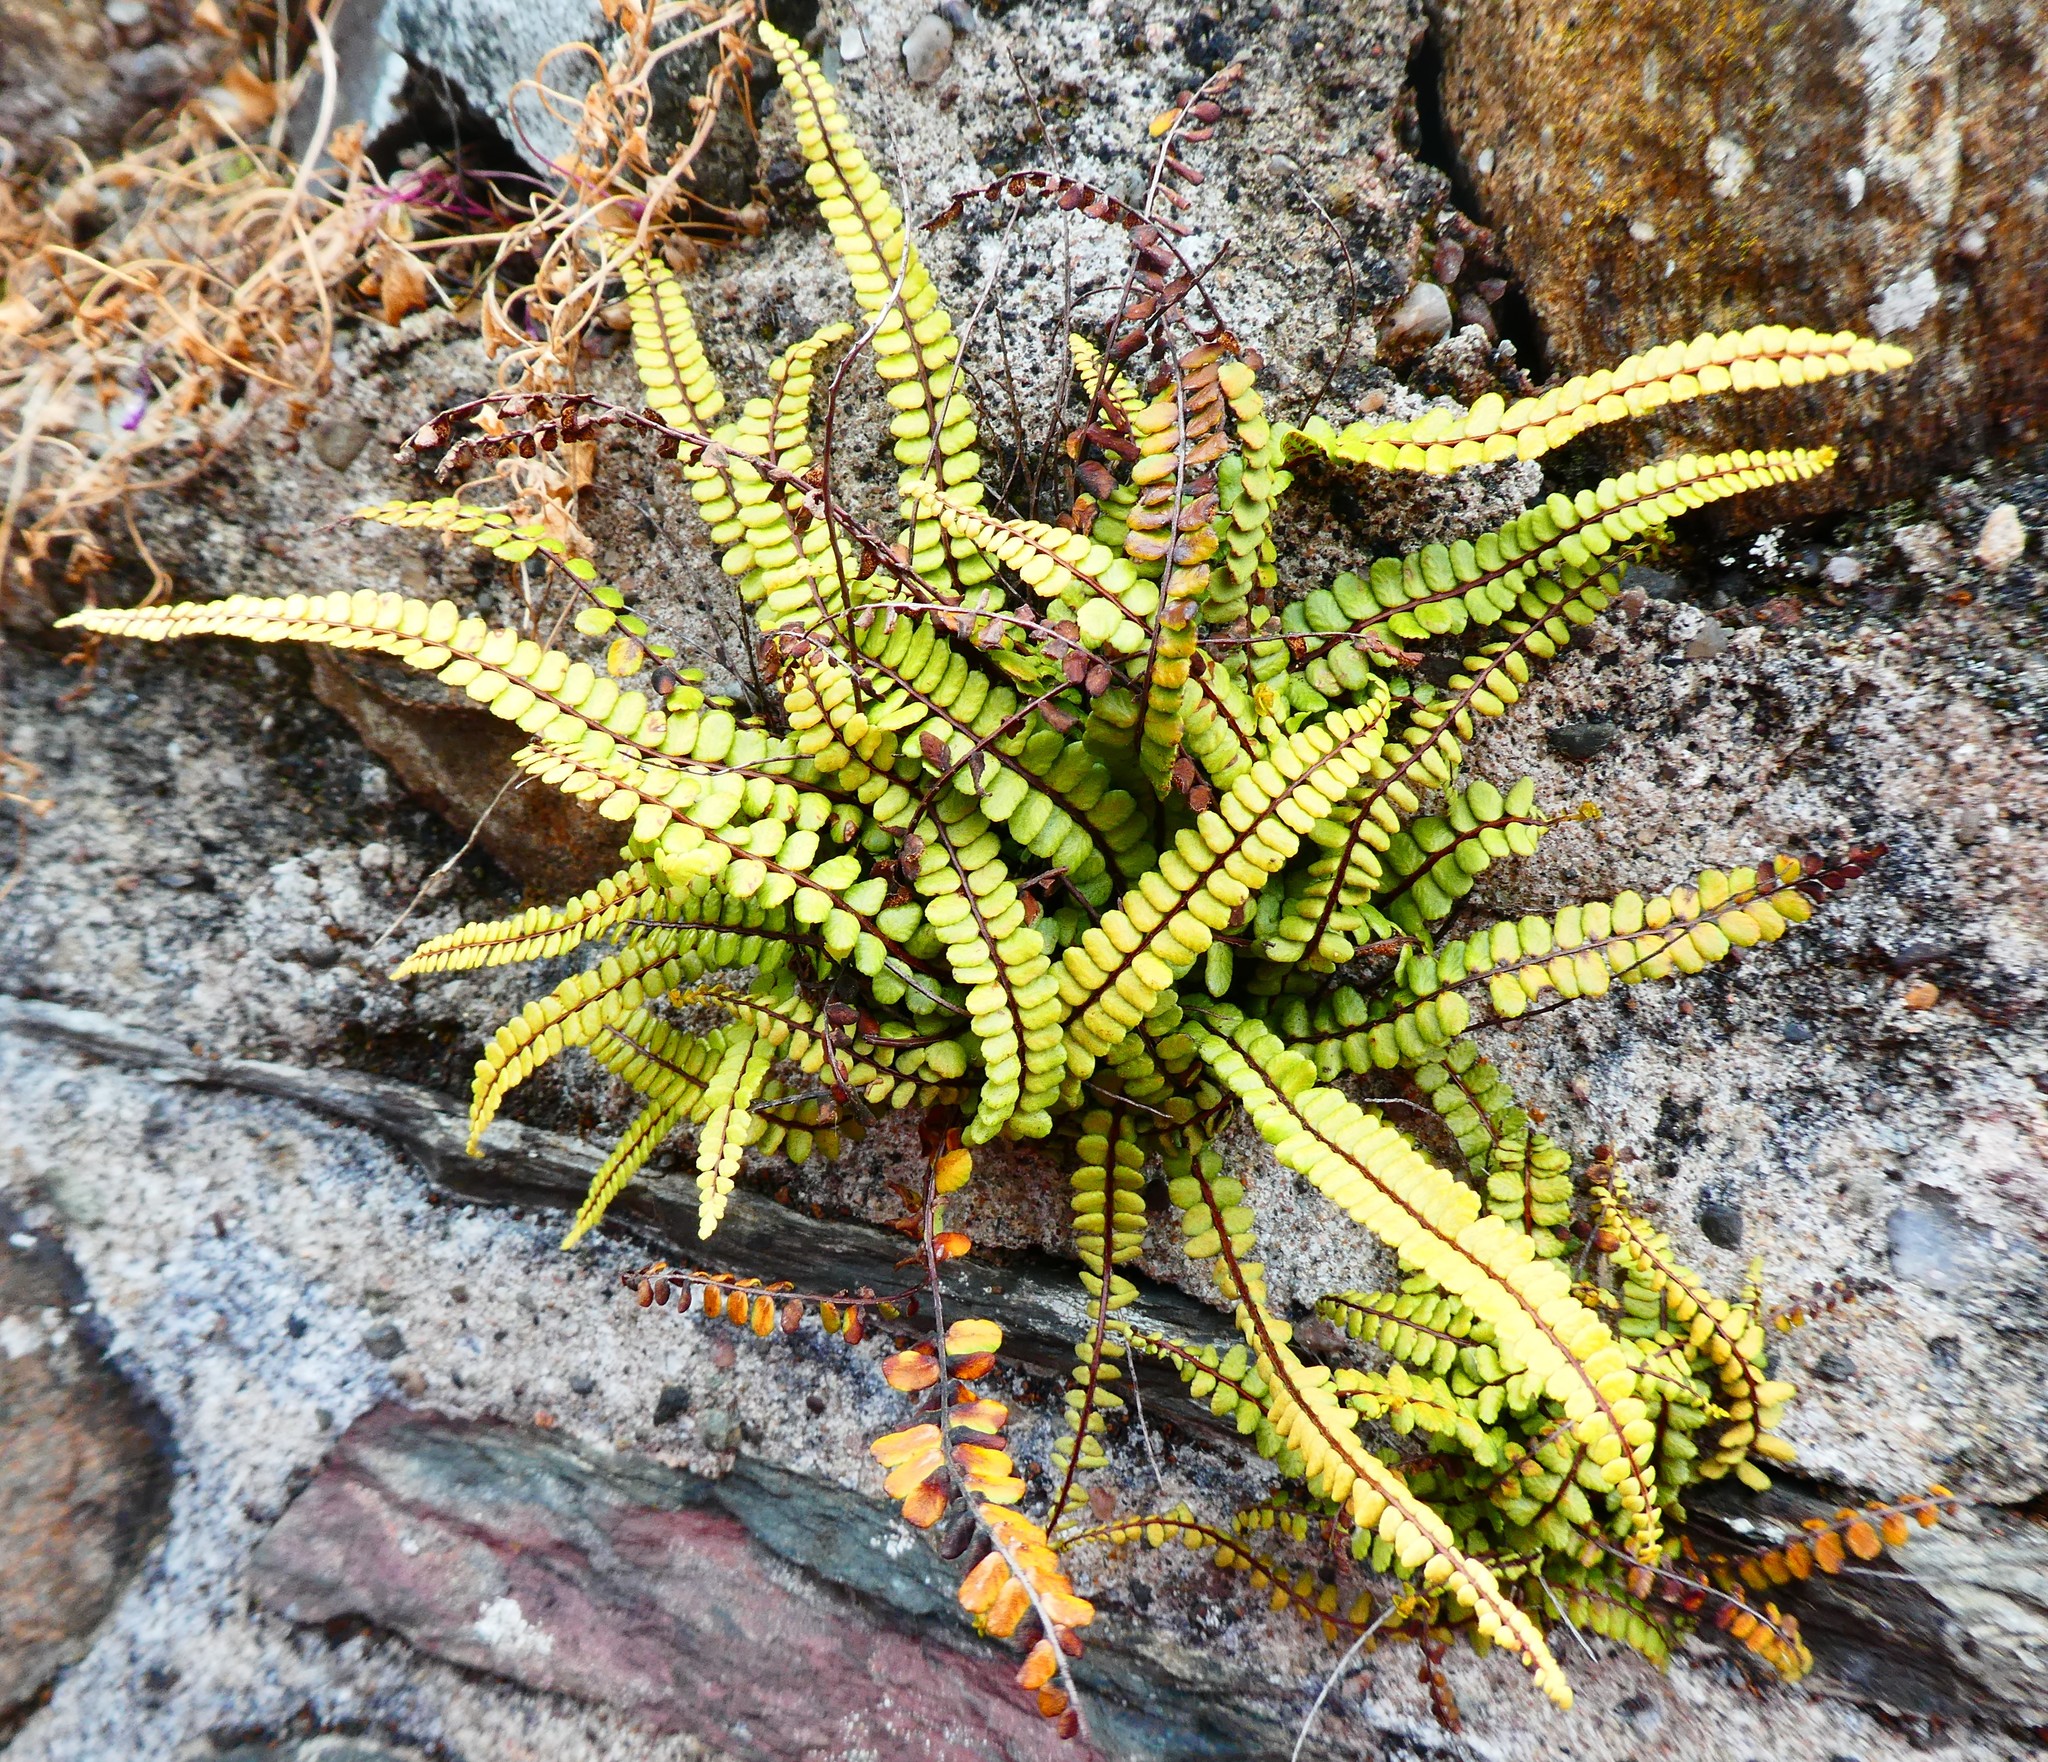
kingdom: Plantae
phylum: Tracheophyta
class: Polypodiopsida
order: Polypodiales
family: Aspleniaceae
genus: Asplenium
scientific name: Asplenium trichomanes
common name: Maidenhair spleenwort
